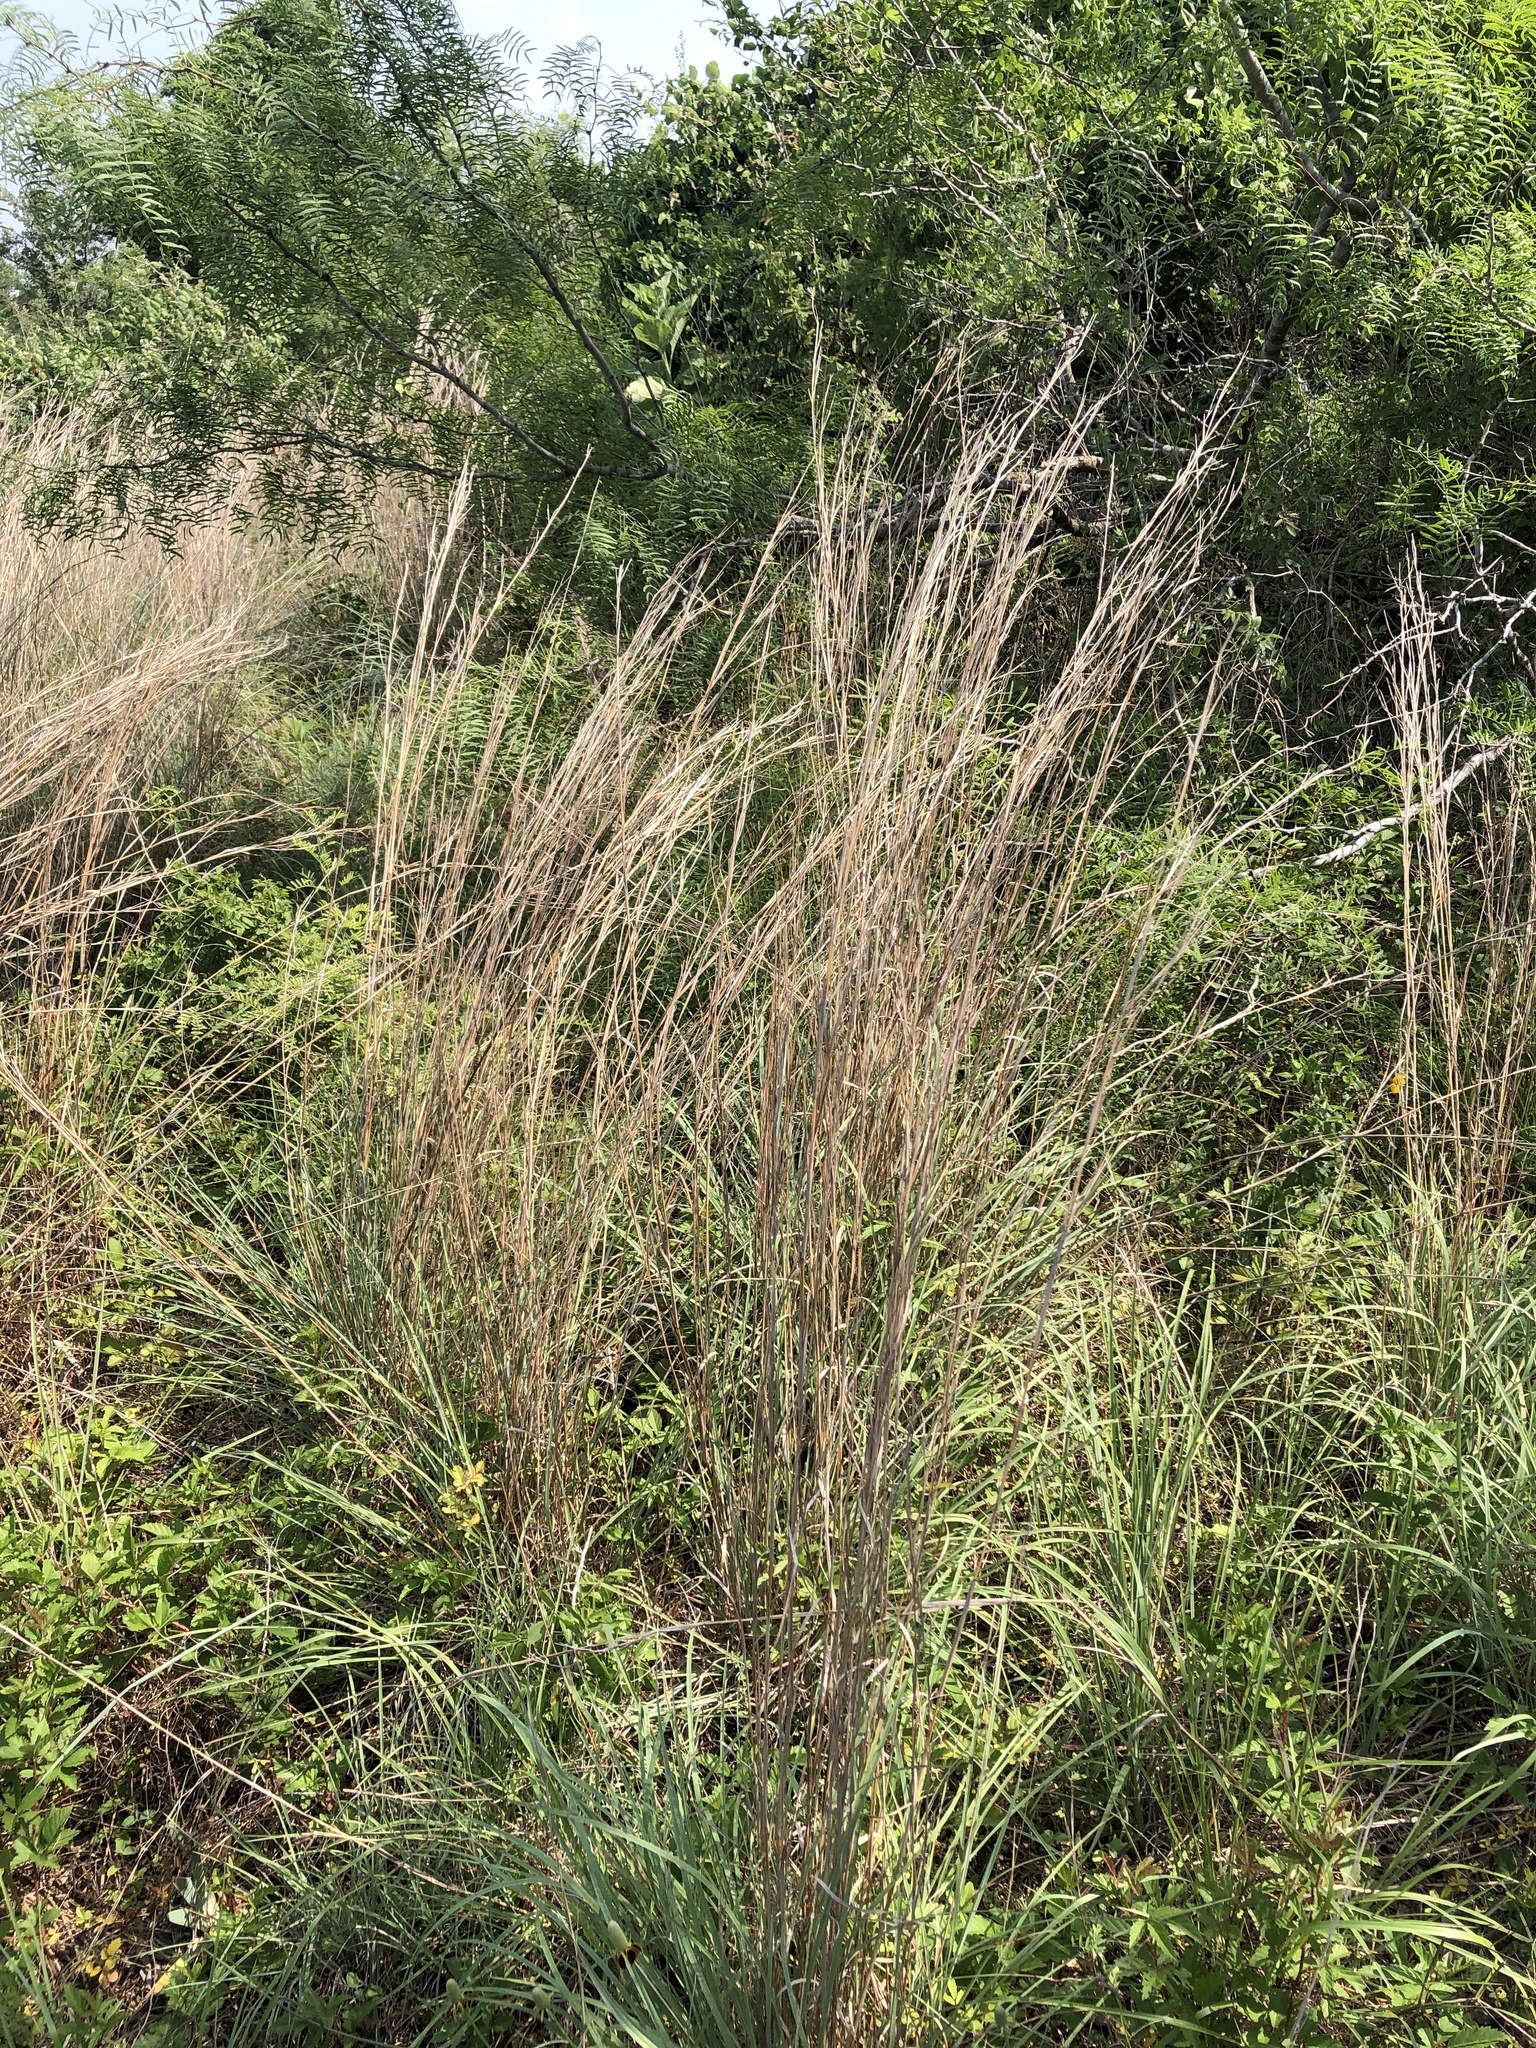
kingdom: Plantae
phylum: Tracheophyta
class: Liliopsida
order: Poales
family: Poaceae
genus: Schizachyrium
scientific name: Schizachyrium scoparium
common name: Little bluestem
